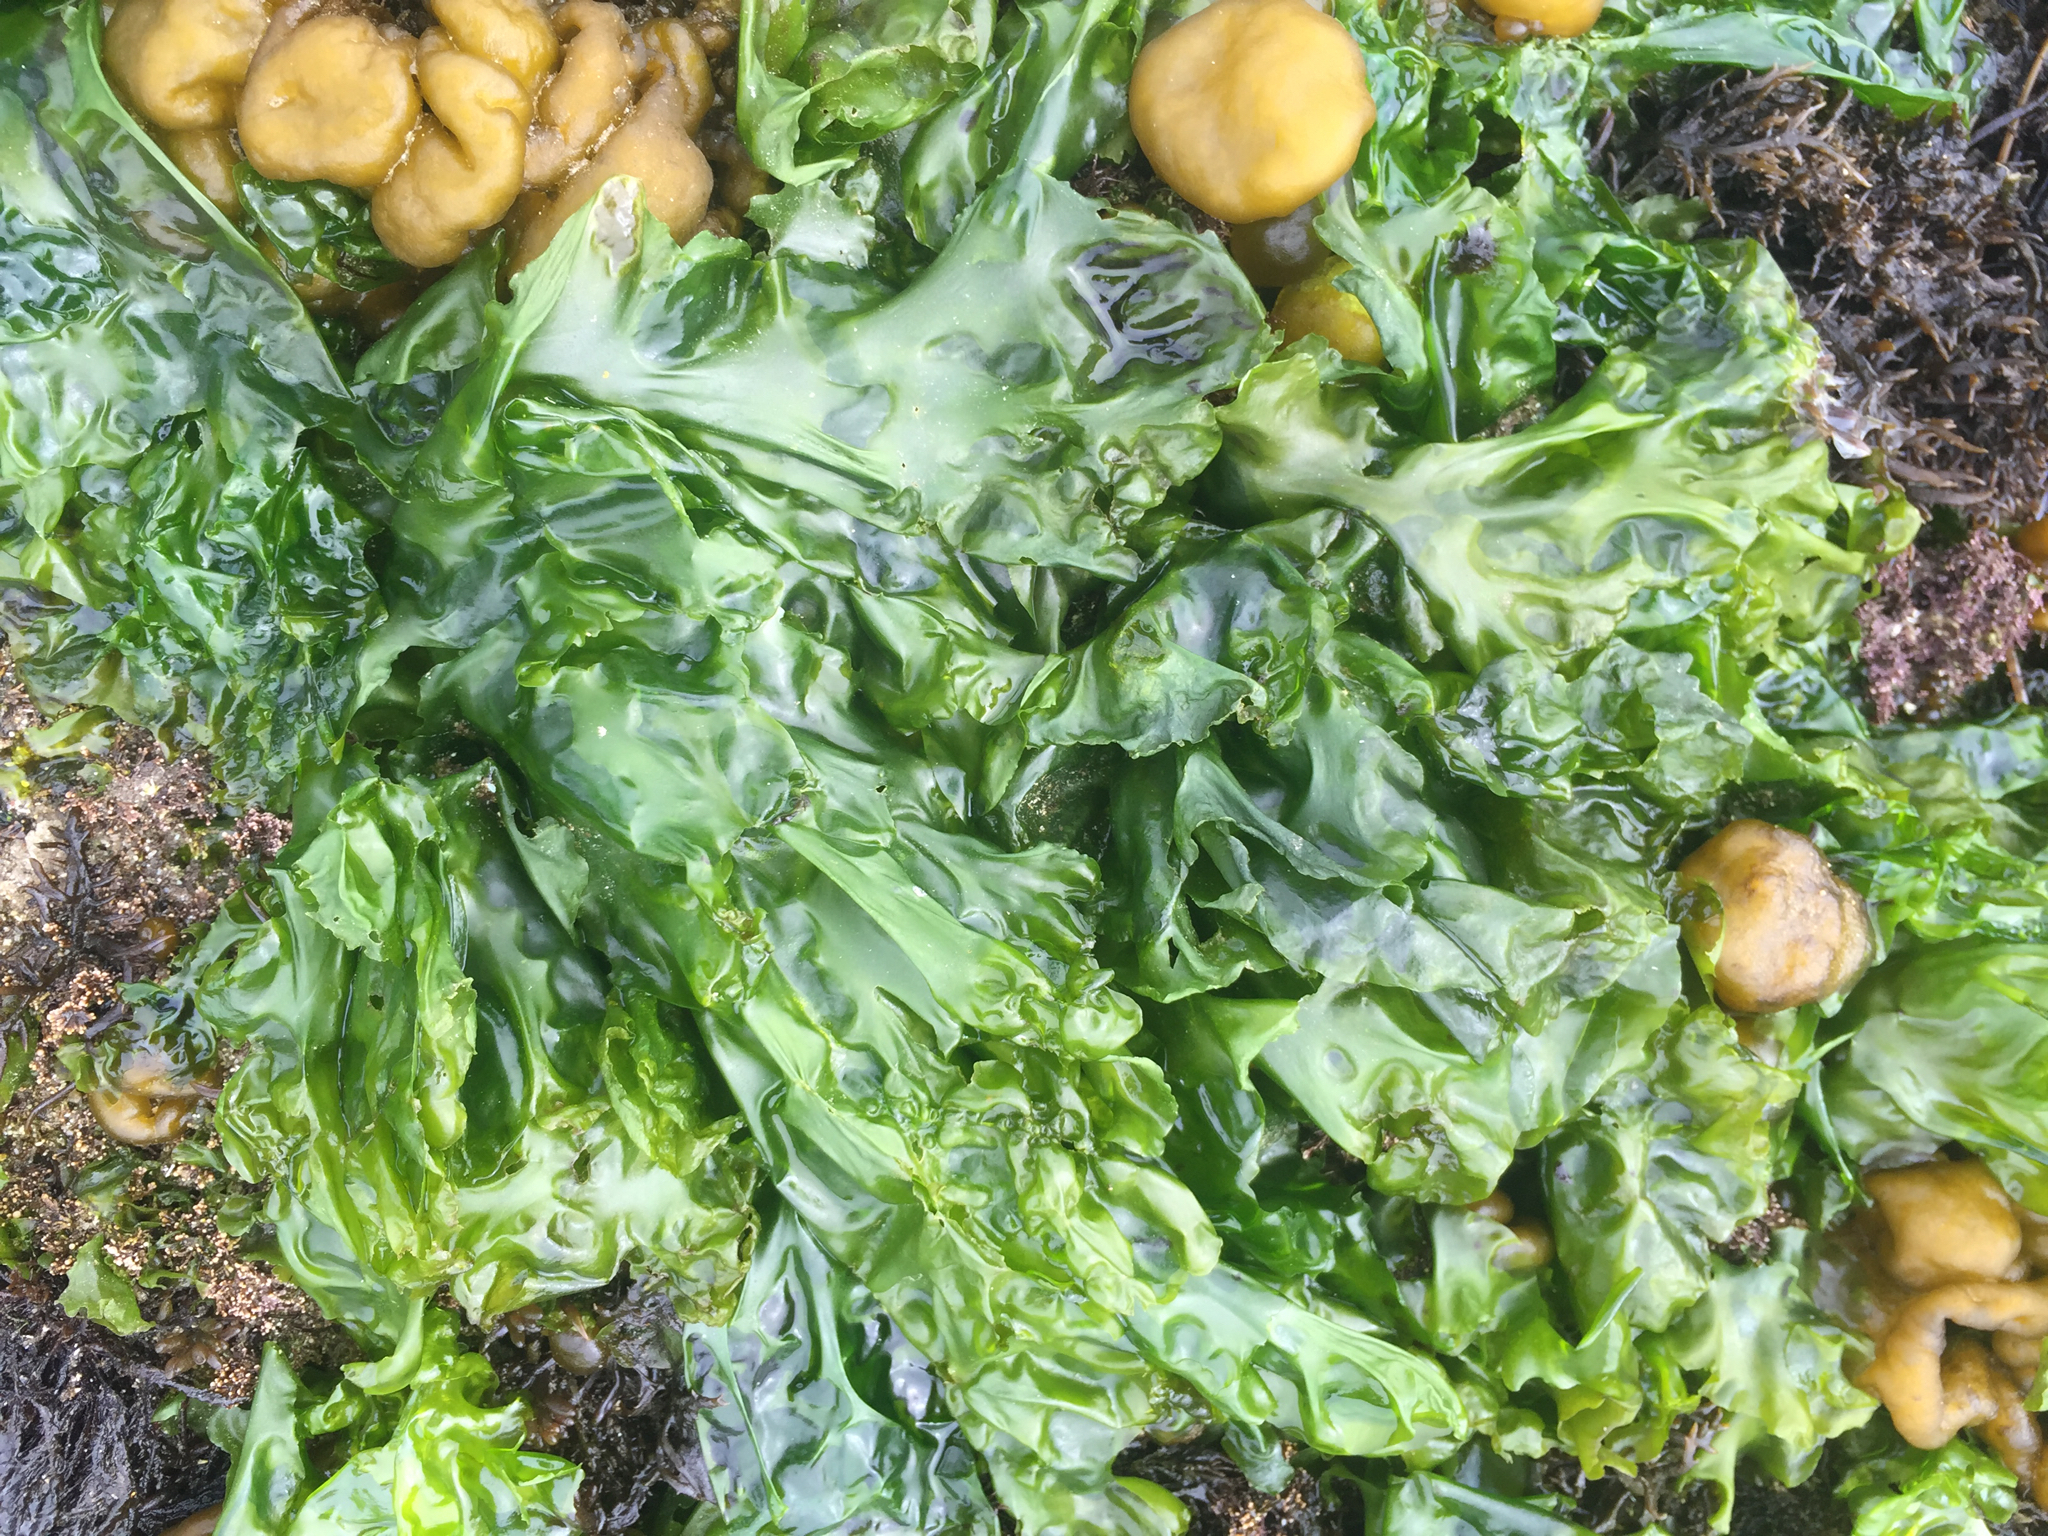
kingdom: Plantae
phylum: Chlorophyta
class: Ulvophyceae
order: Ulvales
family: Ulvaceae
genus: Ulva
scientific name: Ulva lactuca
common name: Sea lettuce
